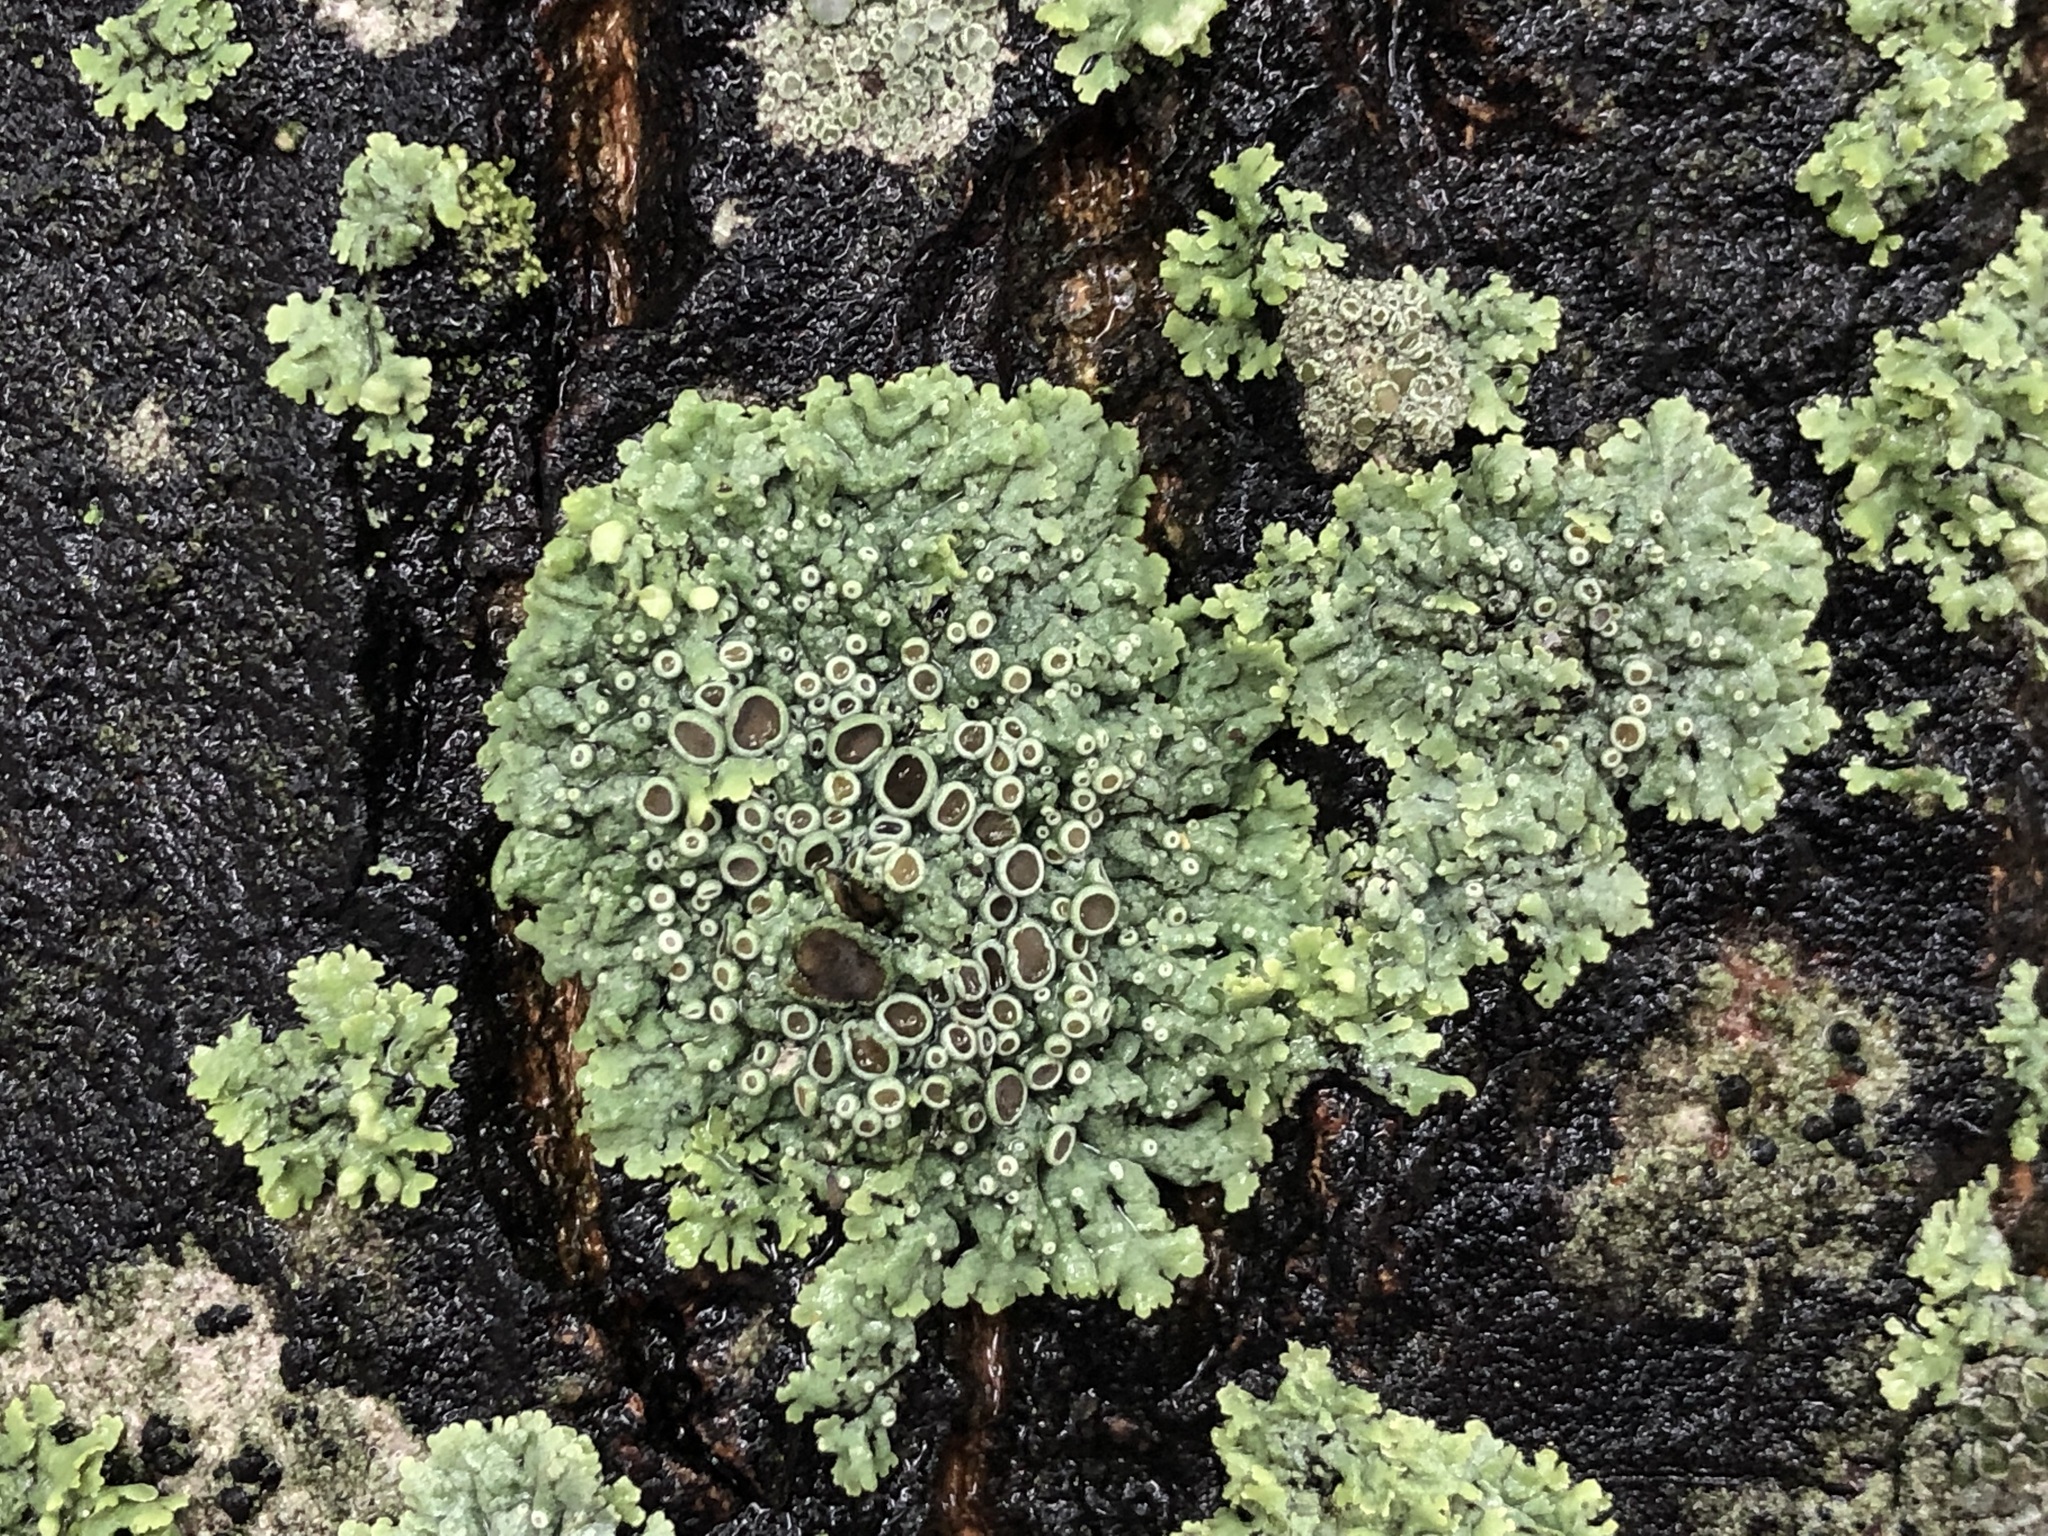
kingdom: Fungi
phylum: Ascomycota
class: Lecanoromycetes
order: Caliciales
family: Physciaceae
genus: Physcia
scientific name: Physcia aipolia
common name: Hoary rosette lichen
